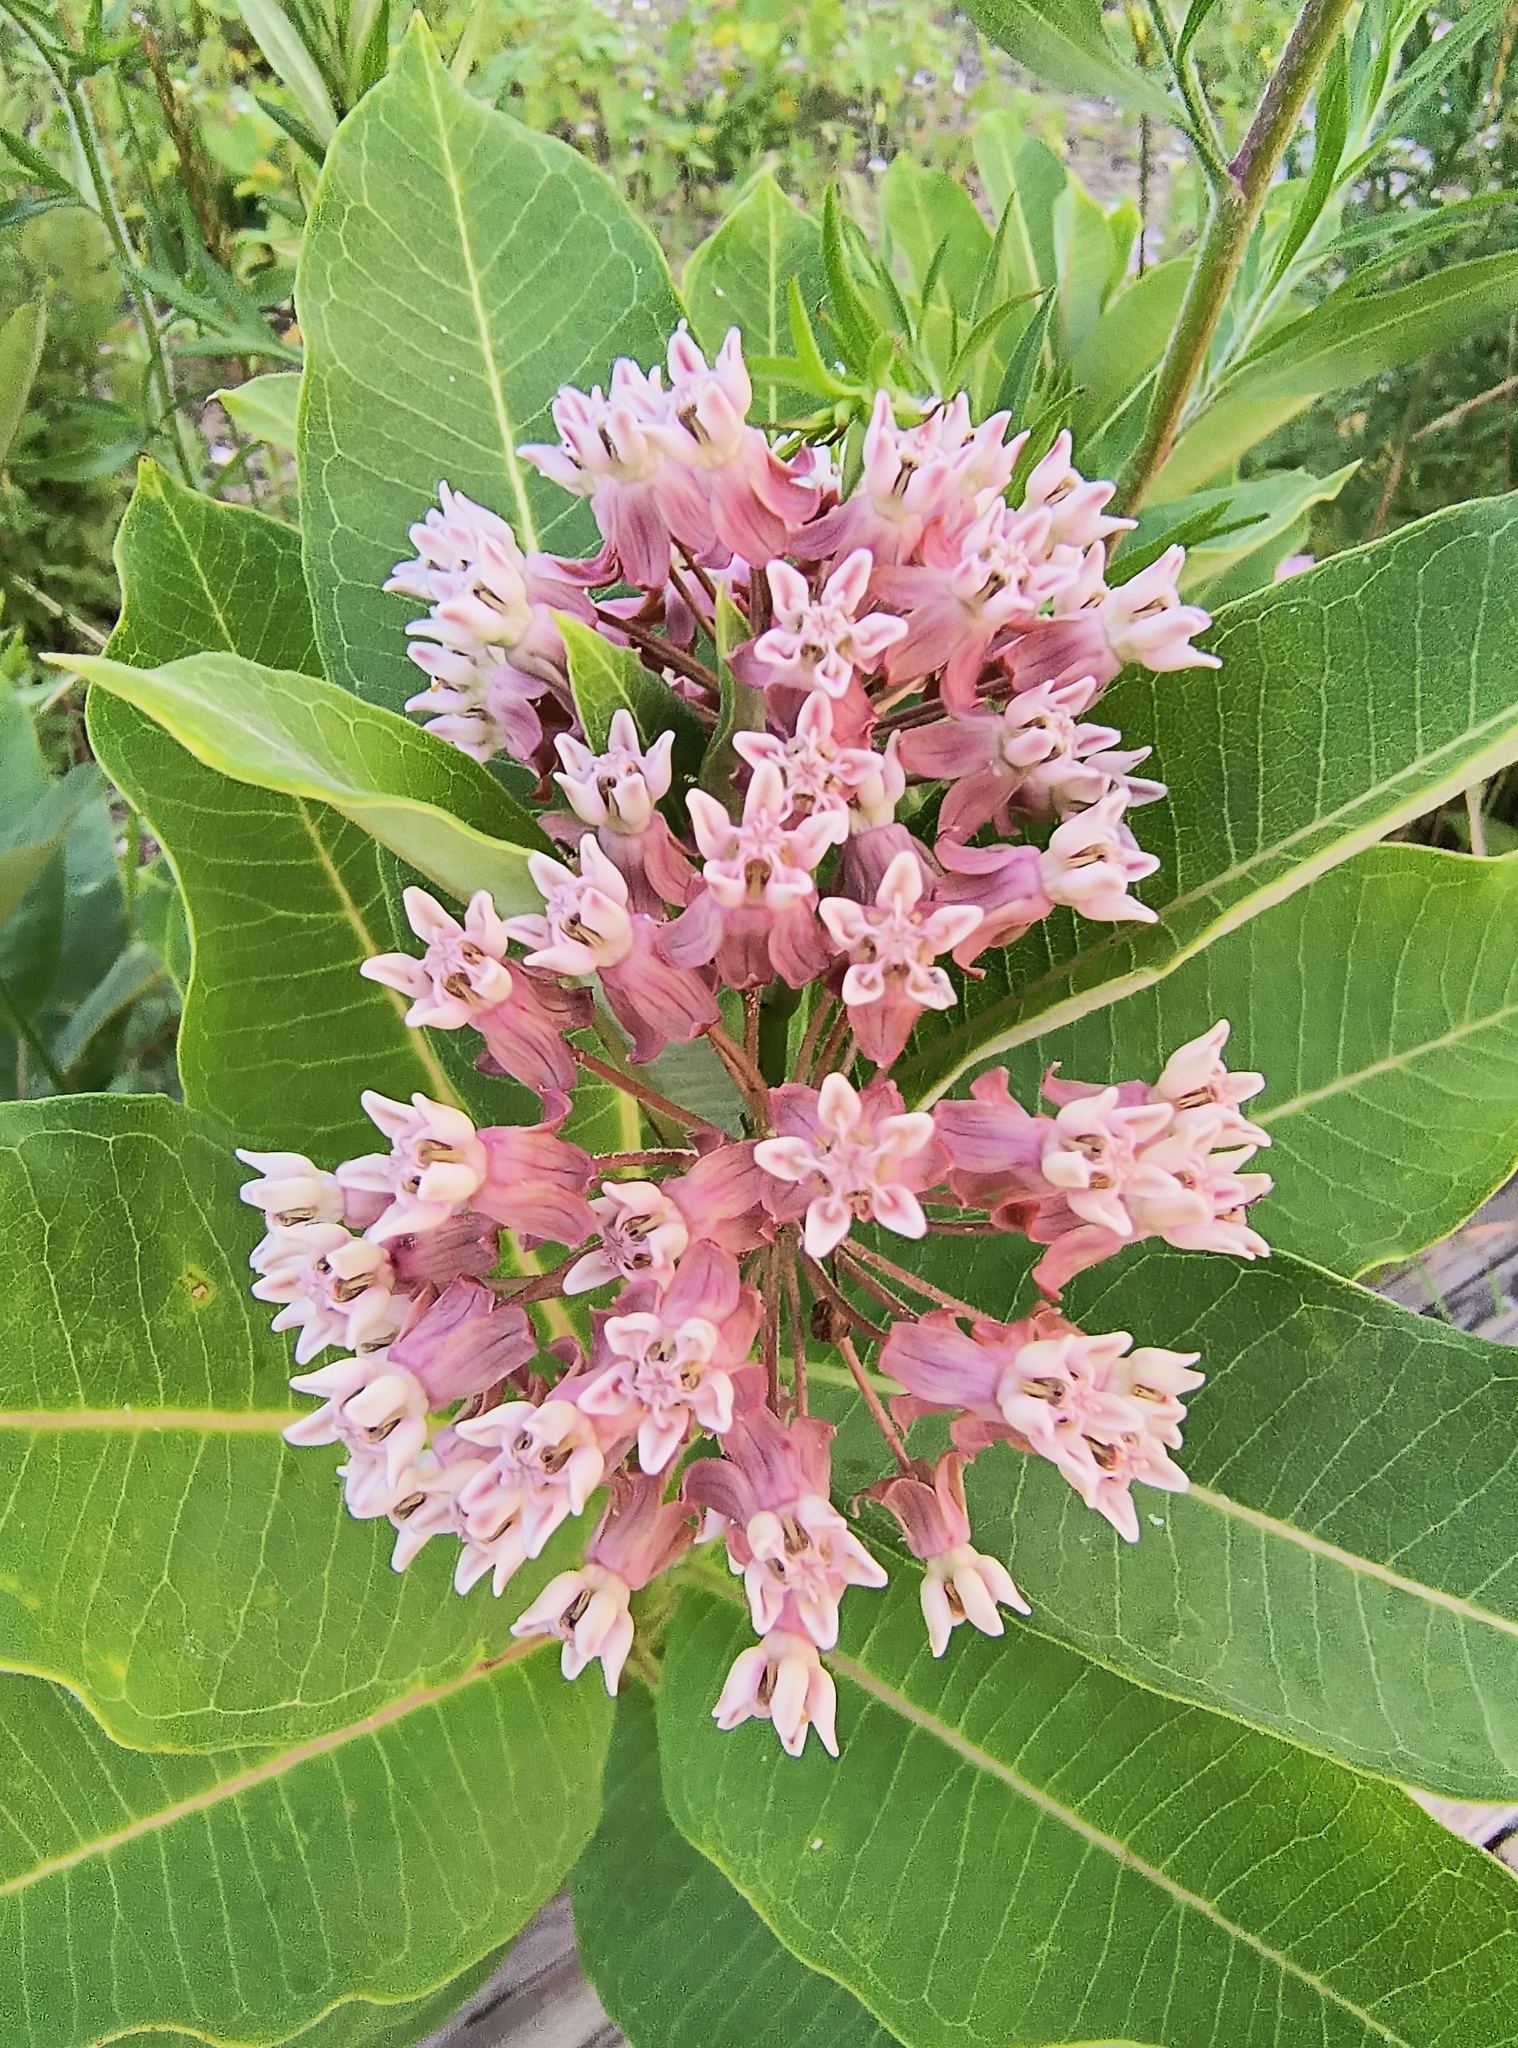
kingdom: Plantae
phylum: Tracheophyta
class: Magnoliopsida
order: Gentianales
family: Apocynaceae
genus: Asclepias
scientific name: Asclepias syriaca
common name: Common milkweed
